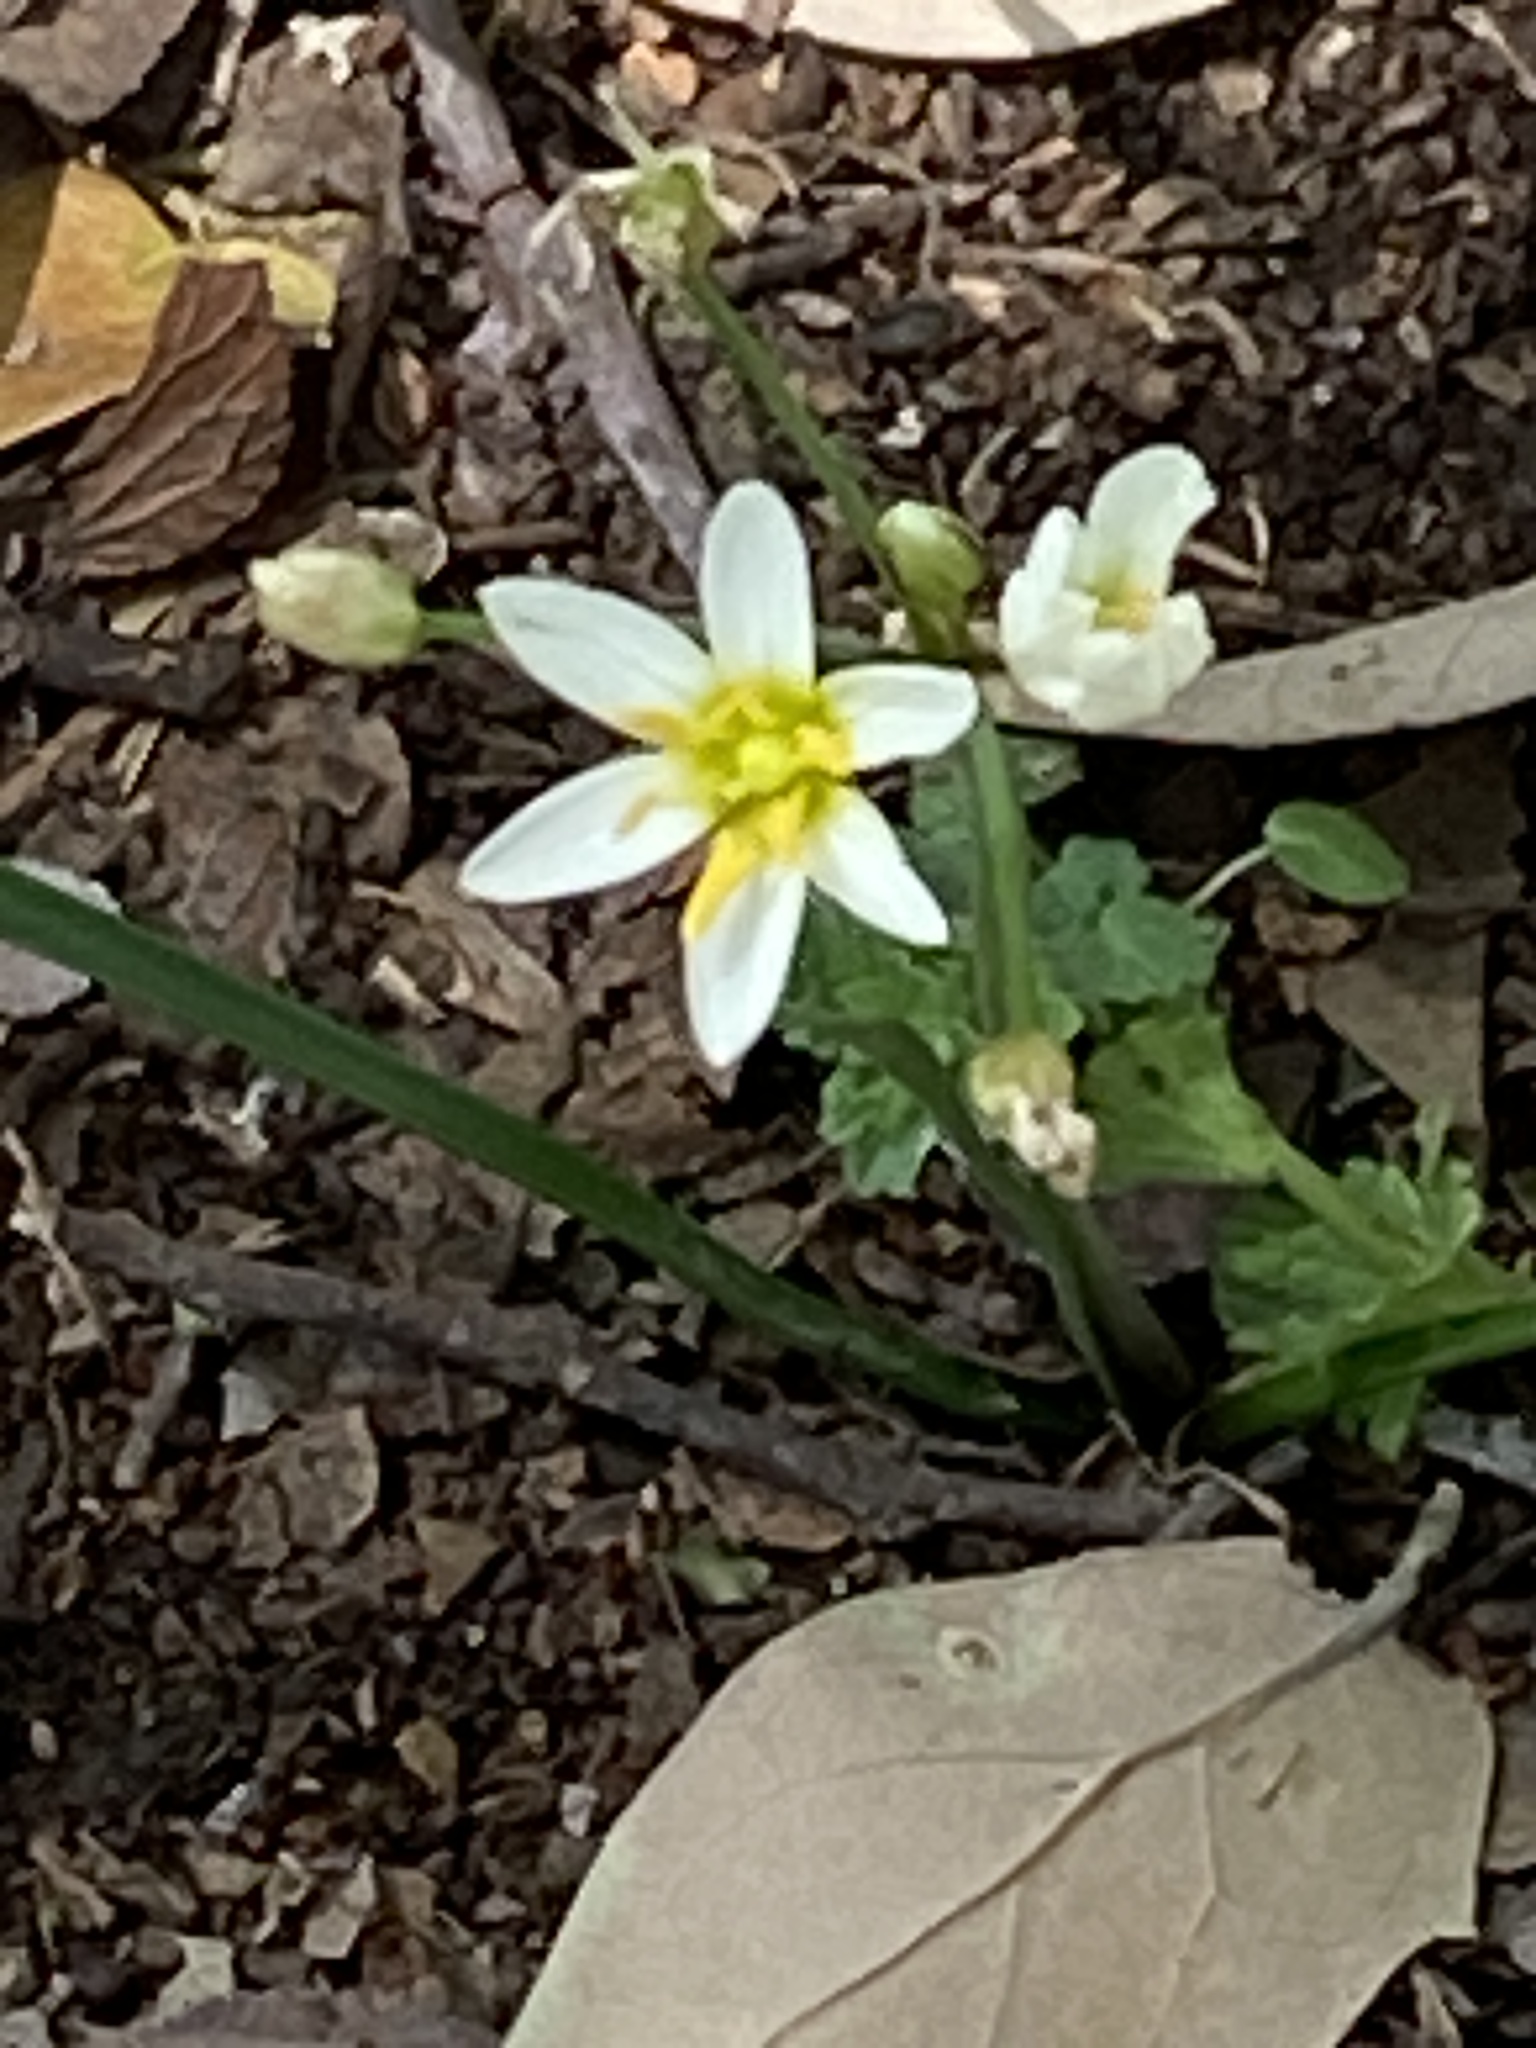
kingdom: Plantae
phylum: Tracheophyta
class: Liliopsida
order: Asparagales
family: Amaryllidaceae
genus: Nothoscordum
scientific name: Nothoscordum bivalve
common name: Crow-poison
